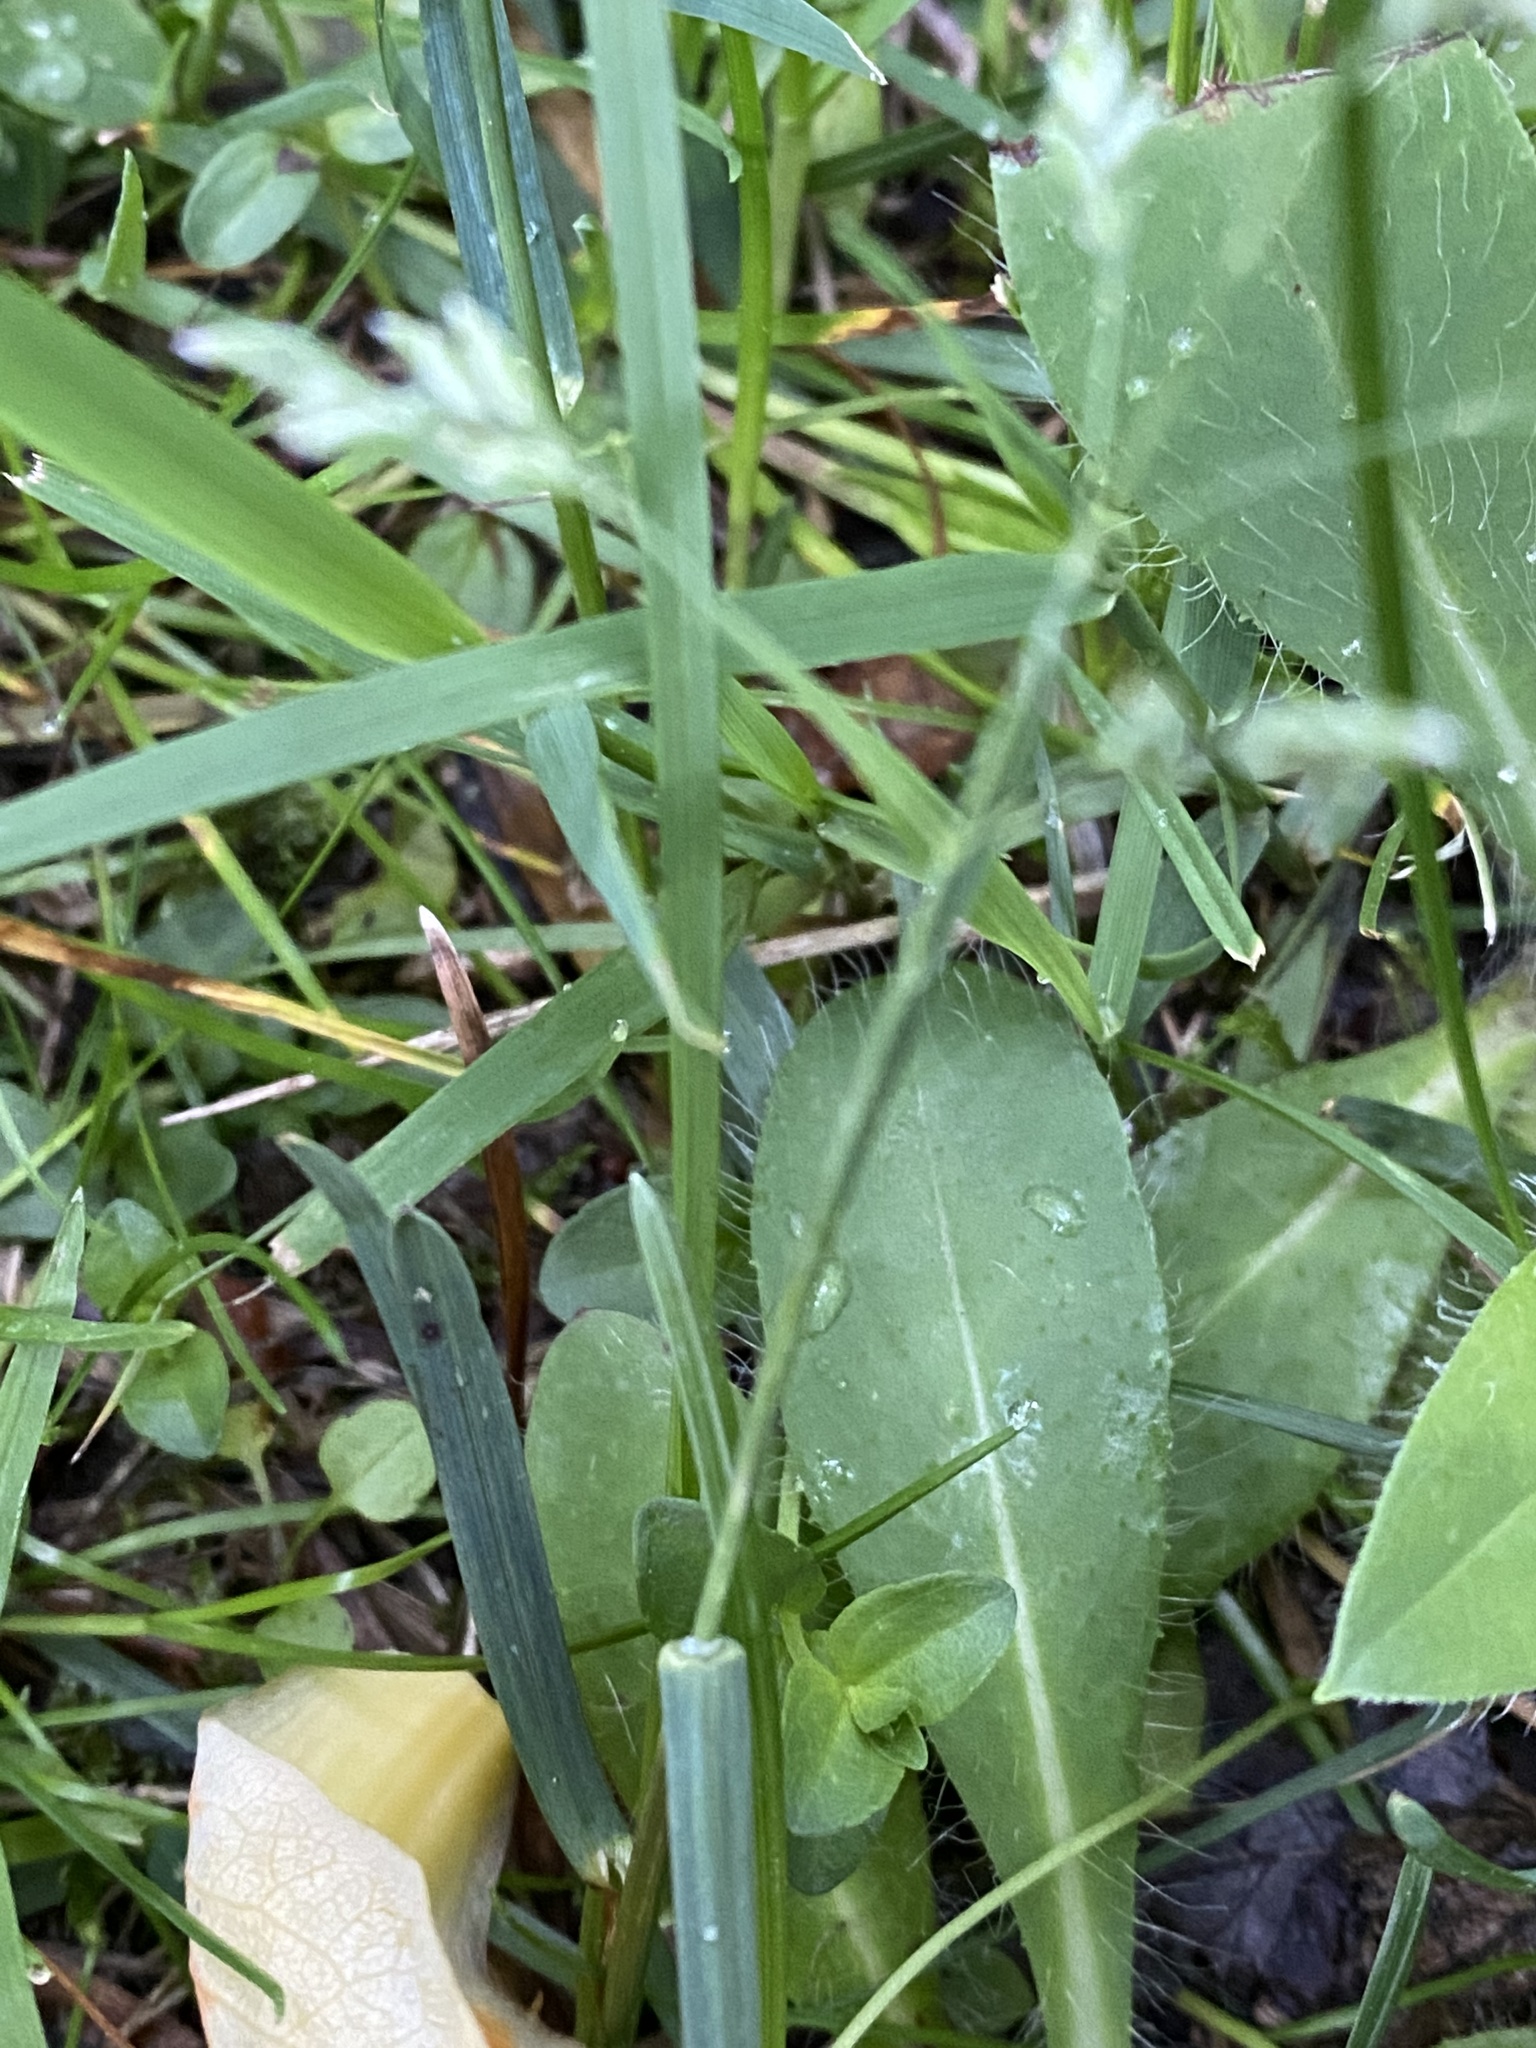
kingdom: Plantae
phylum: Tracheophyta
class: Liliopsida
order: Poales
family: Poaceae
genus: Poa
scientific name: Poa annua
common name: Annual bluegrass
